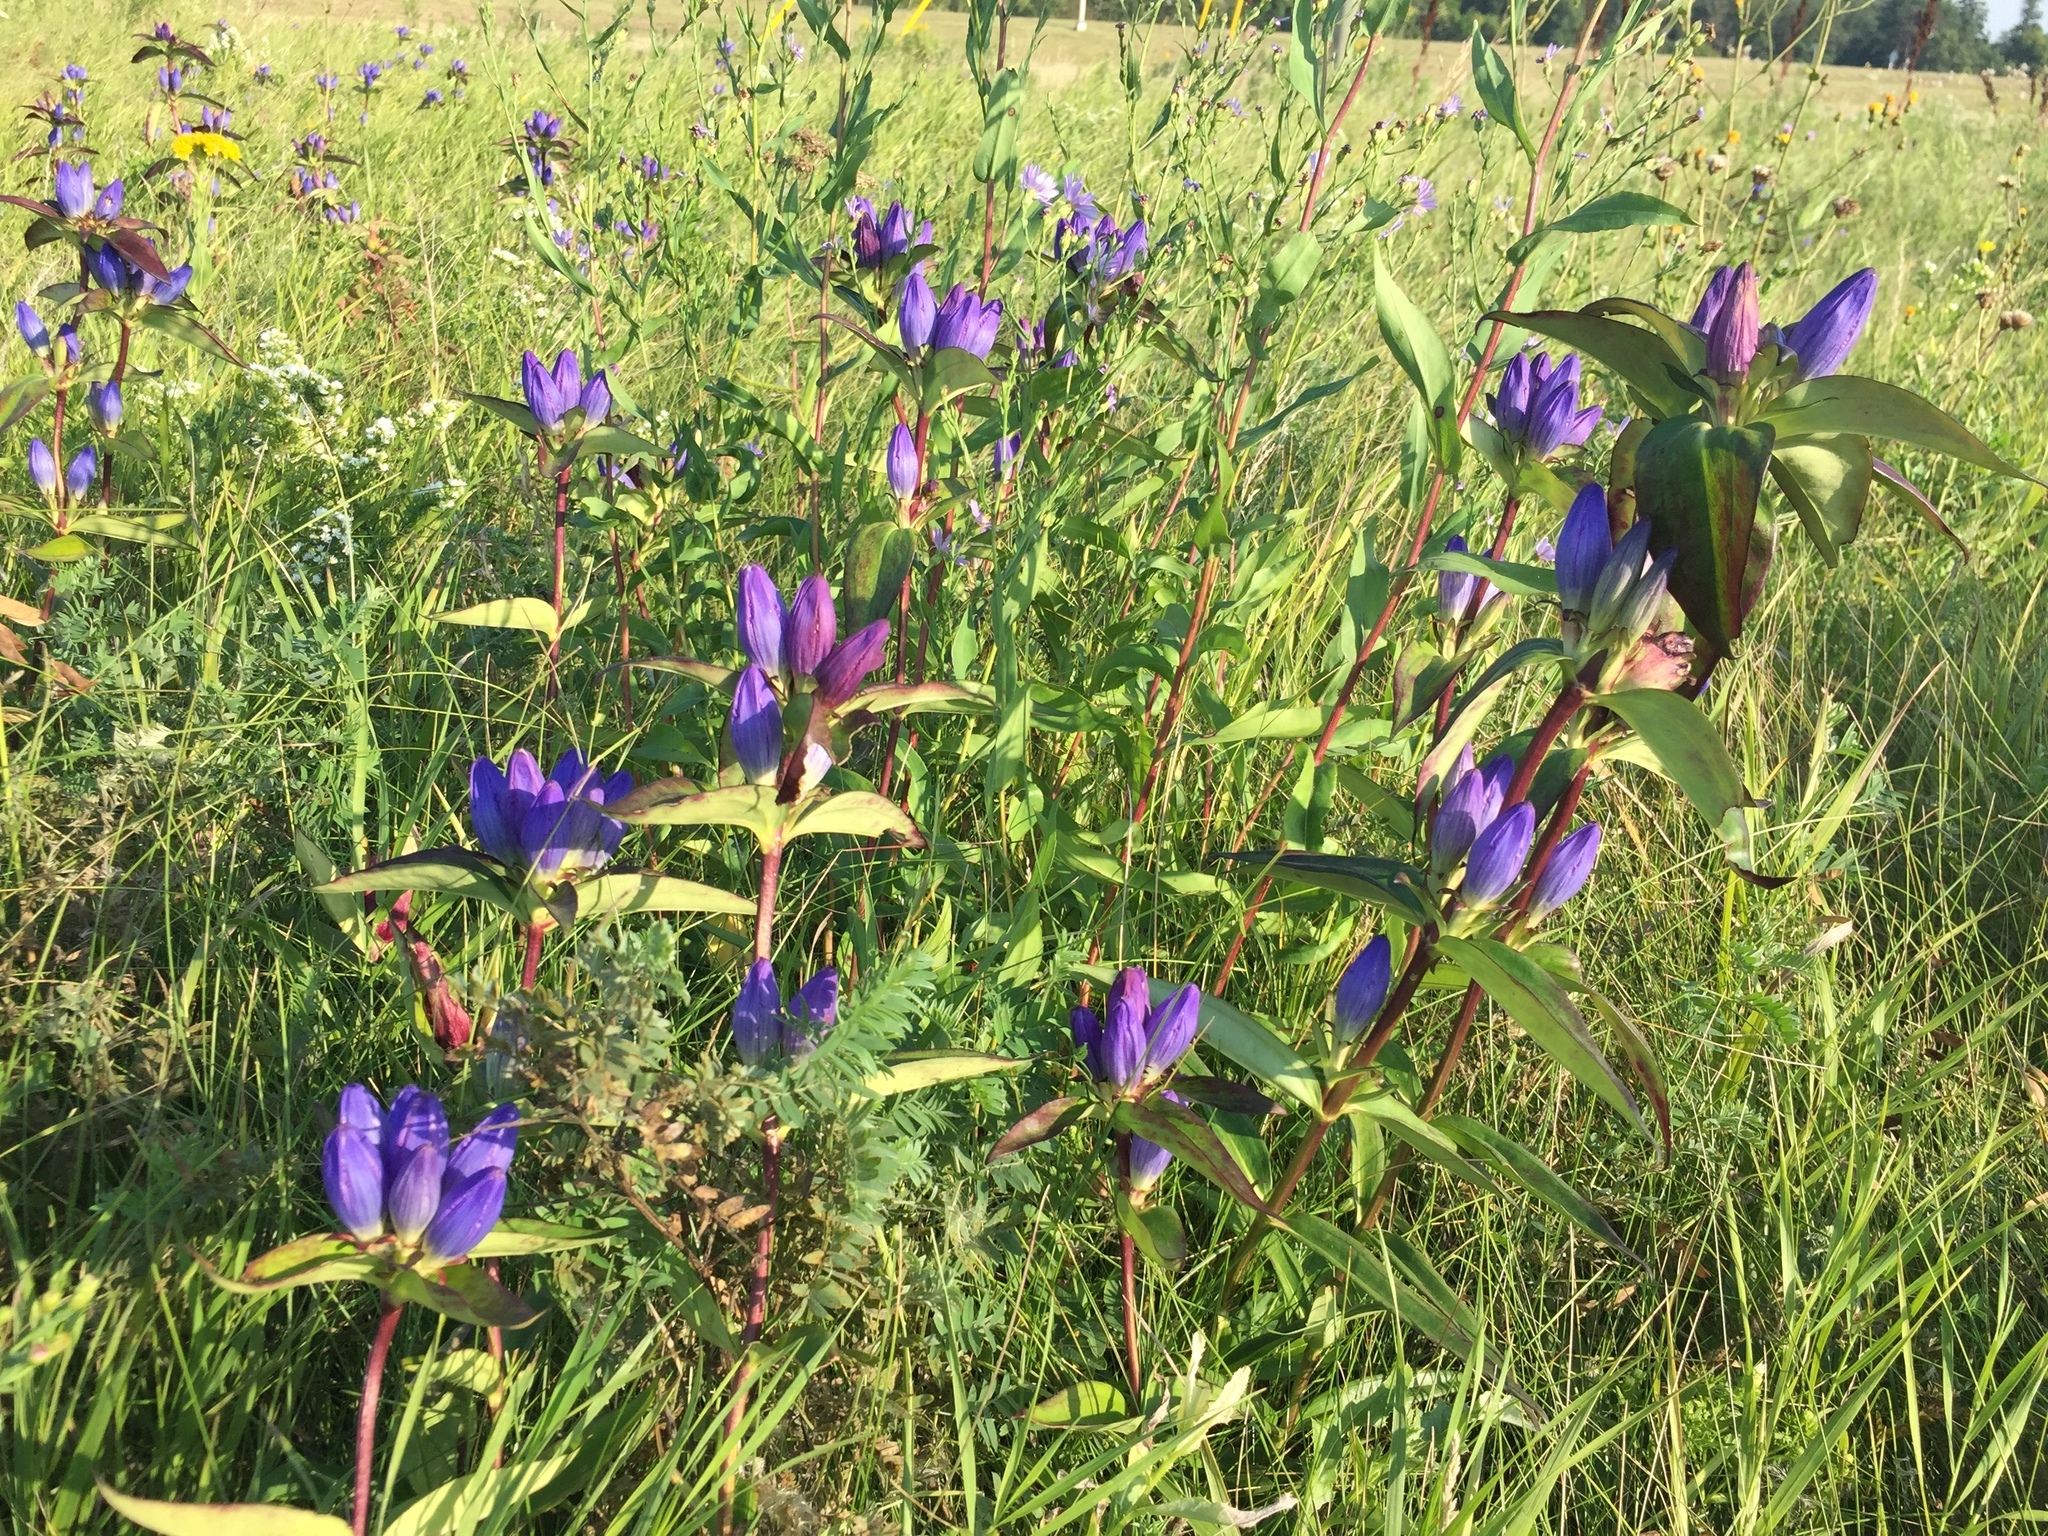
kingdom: Plantae
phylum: Tracheophyta
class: Magnoliopsida
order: Gentianales
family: Gentianaceae
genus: Gentiana
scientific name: Gentiana andrewsii
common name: Bottle gentian
